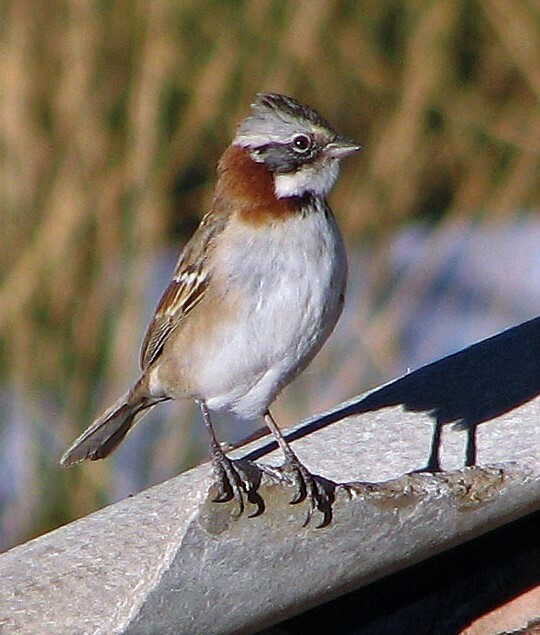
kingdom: Animalia
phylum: Chordata
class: Aves
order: Passeriformes
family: Passerellidae
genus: Zonotrichia
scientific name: Zonotrichia capensis
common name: Rufous-collared sparrow
